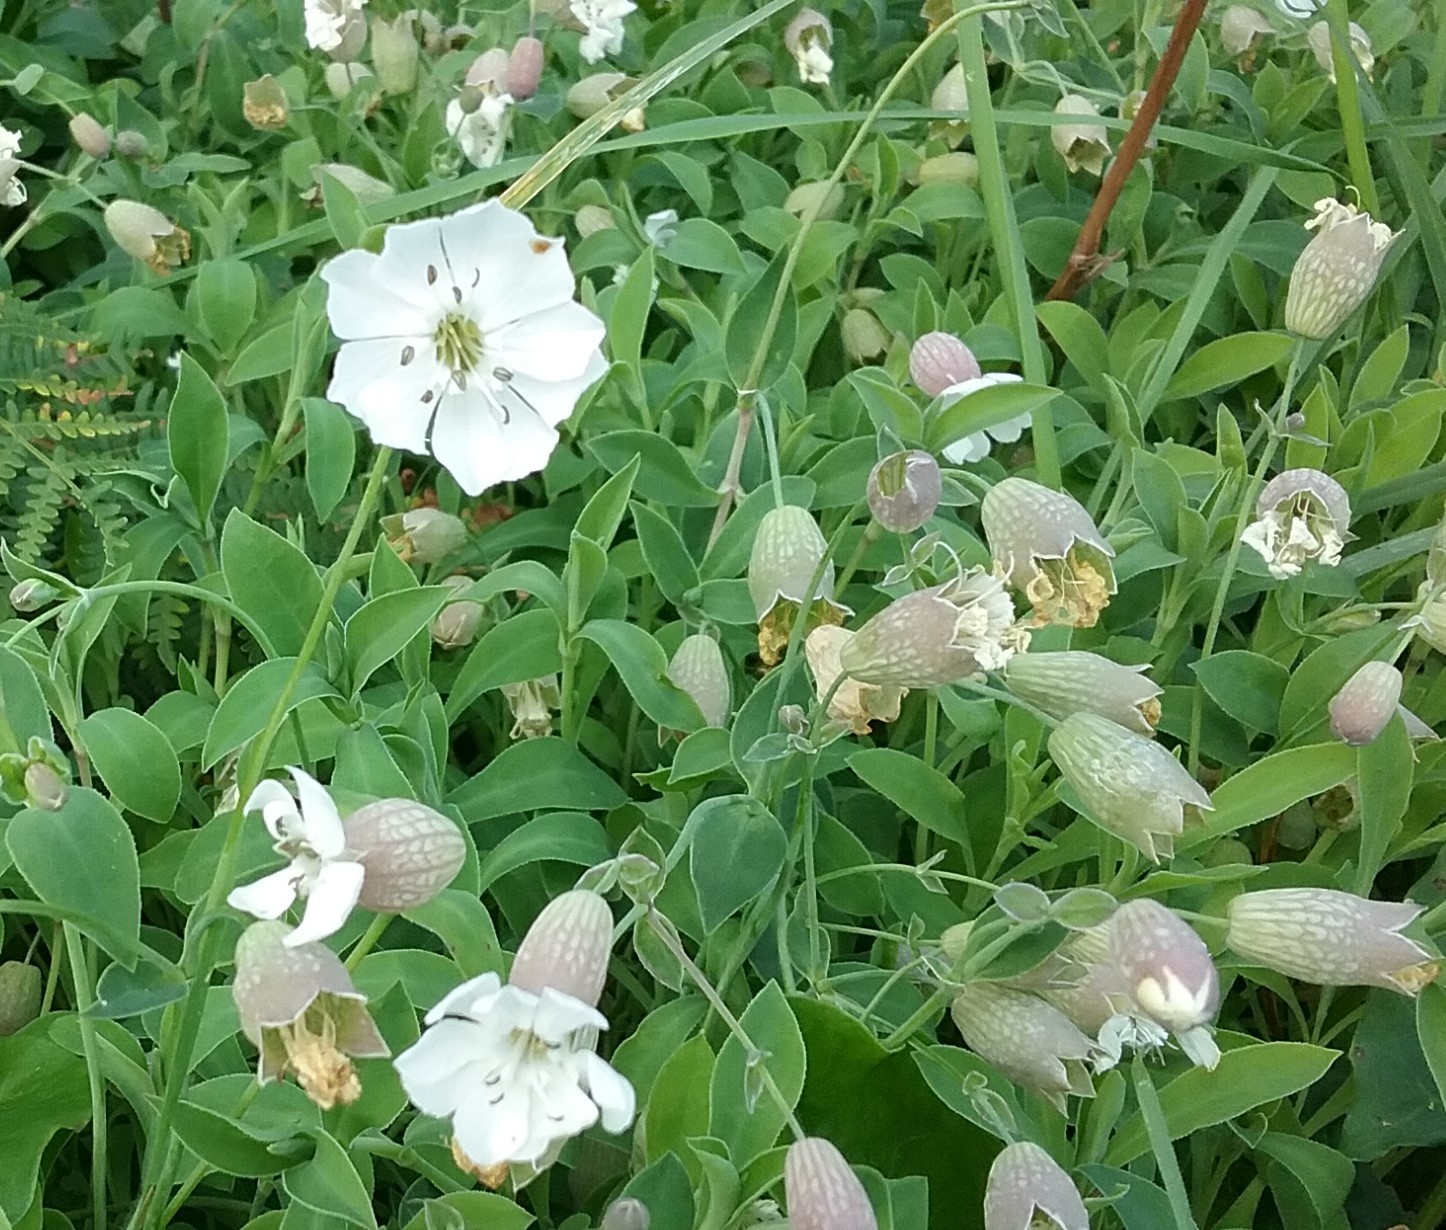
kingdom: Plantae
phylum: Tracheophyta
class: Magnoliopsida
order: Caryophyllales
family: Caryophyllaceae
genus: Silene
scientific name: Silene uniflora
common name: Sea campion
